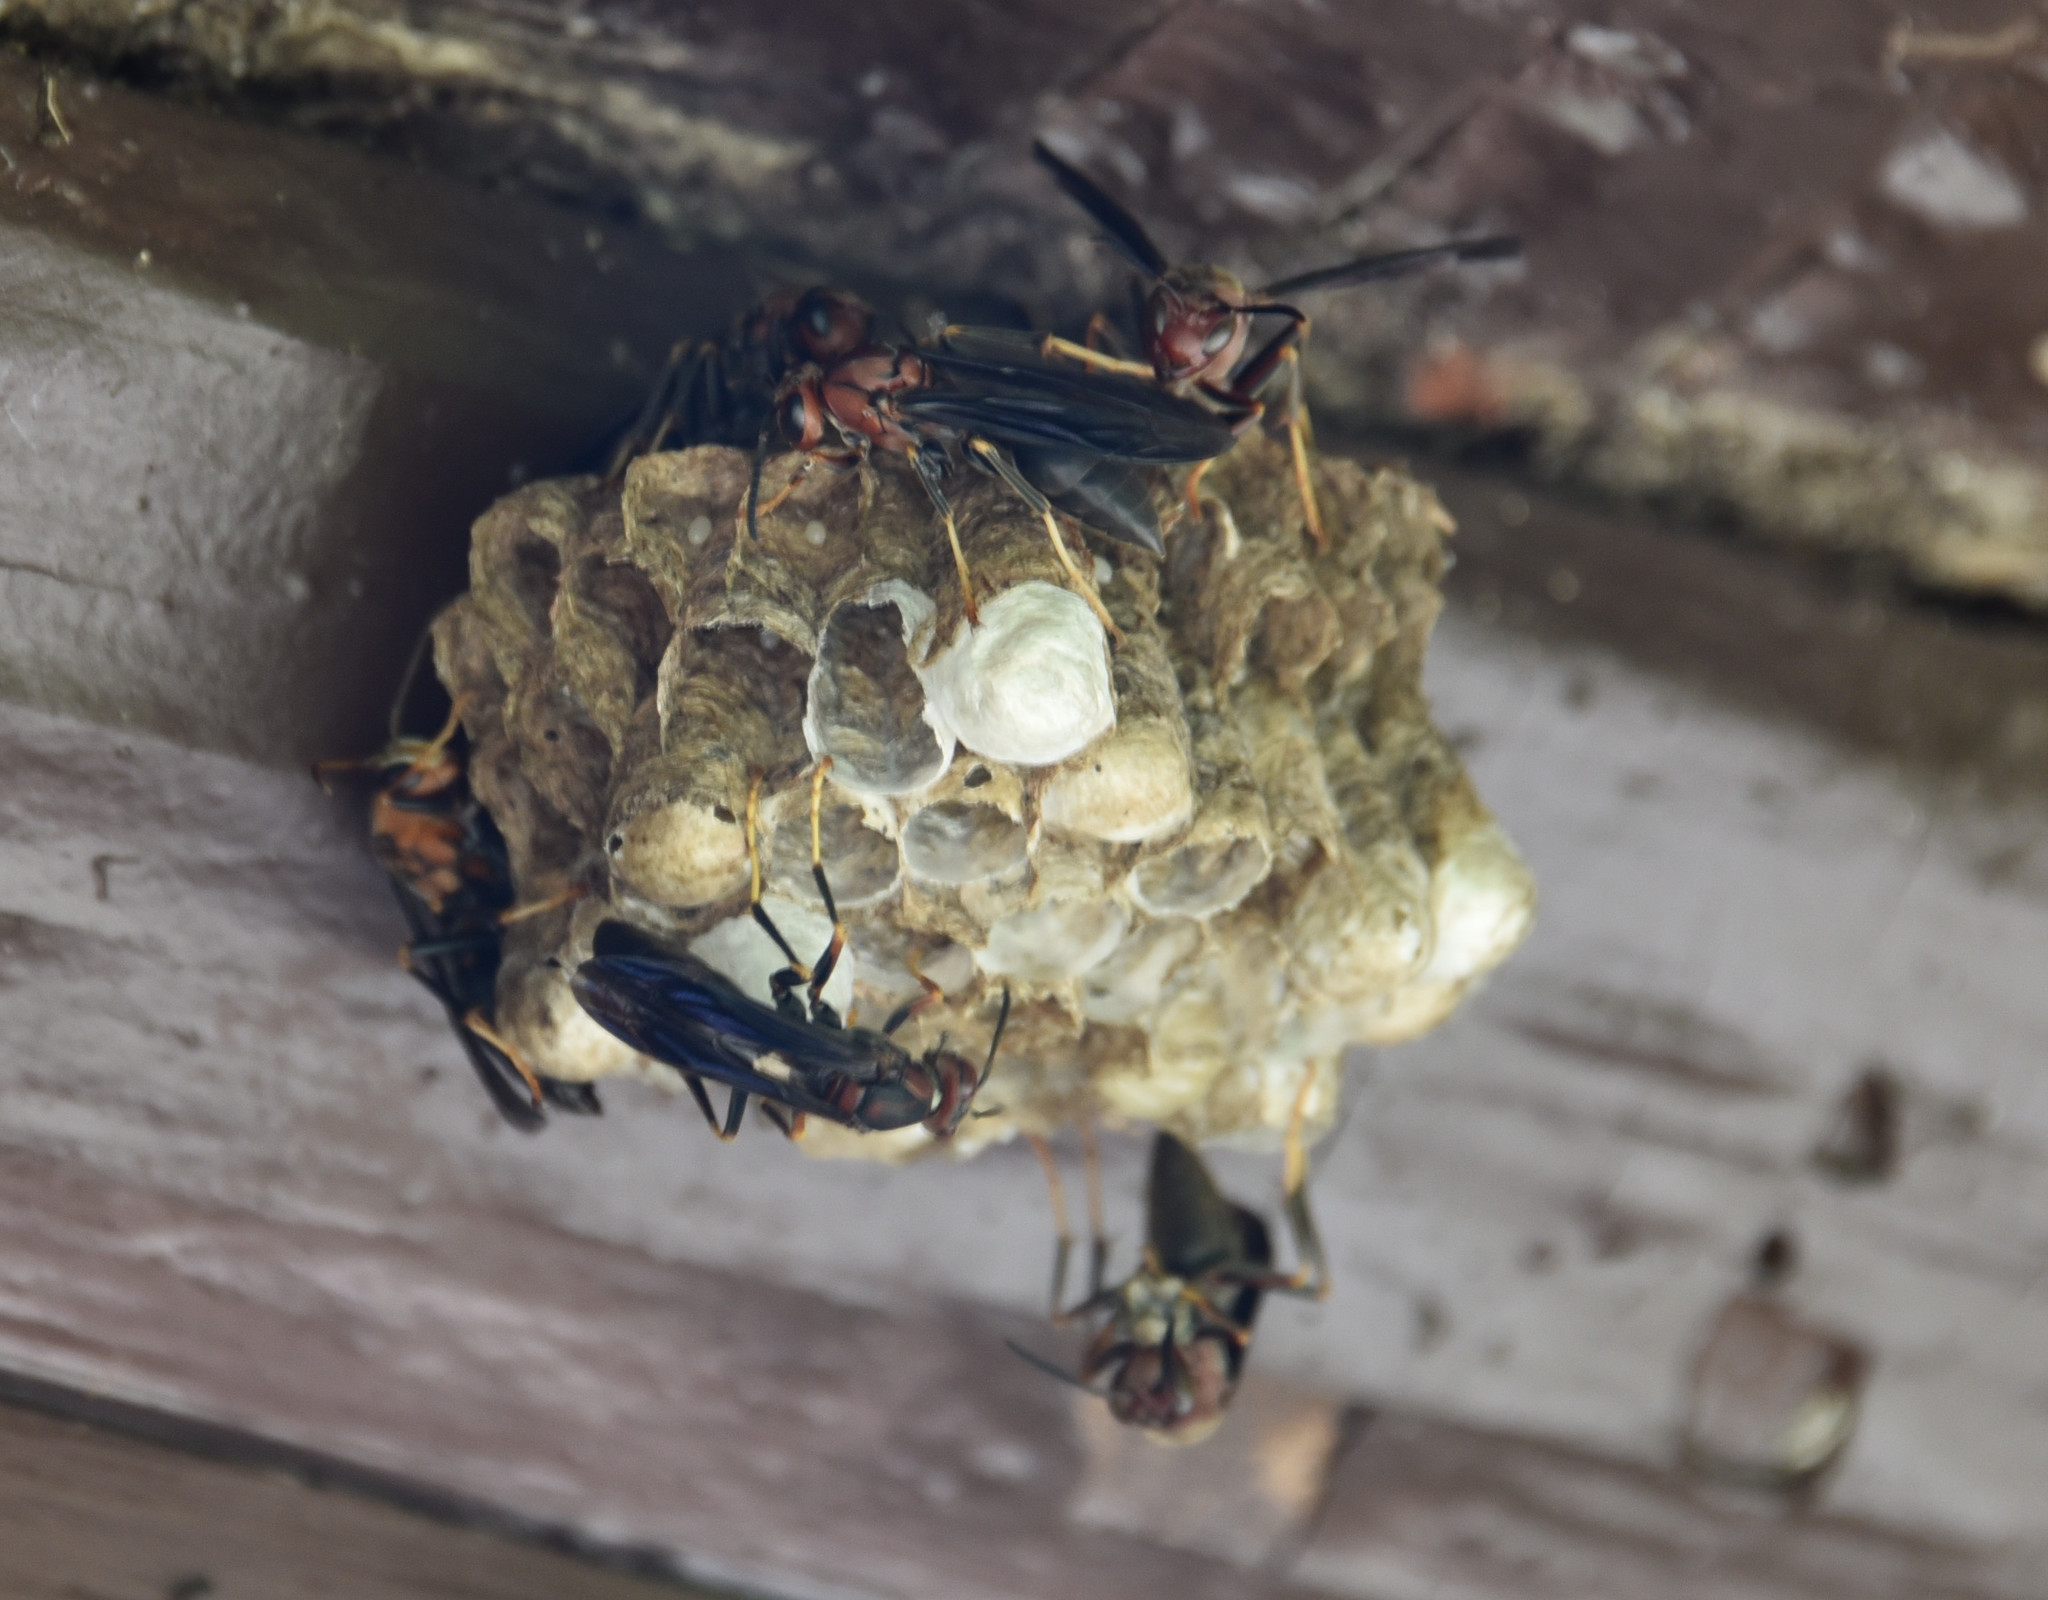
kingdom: Animalia
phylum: Arthropoda
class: Insecta
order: Hymenoptera
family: Eumenidae
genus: Polistes
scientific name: Polistes metricus
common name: Metric paper wasp
